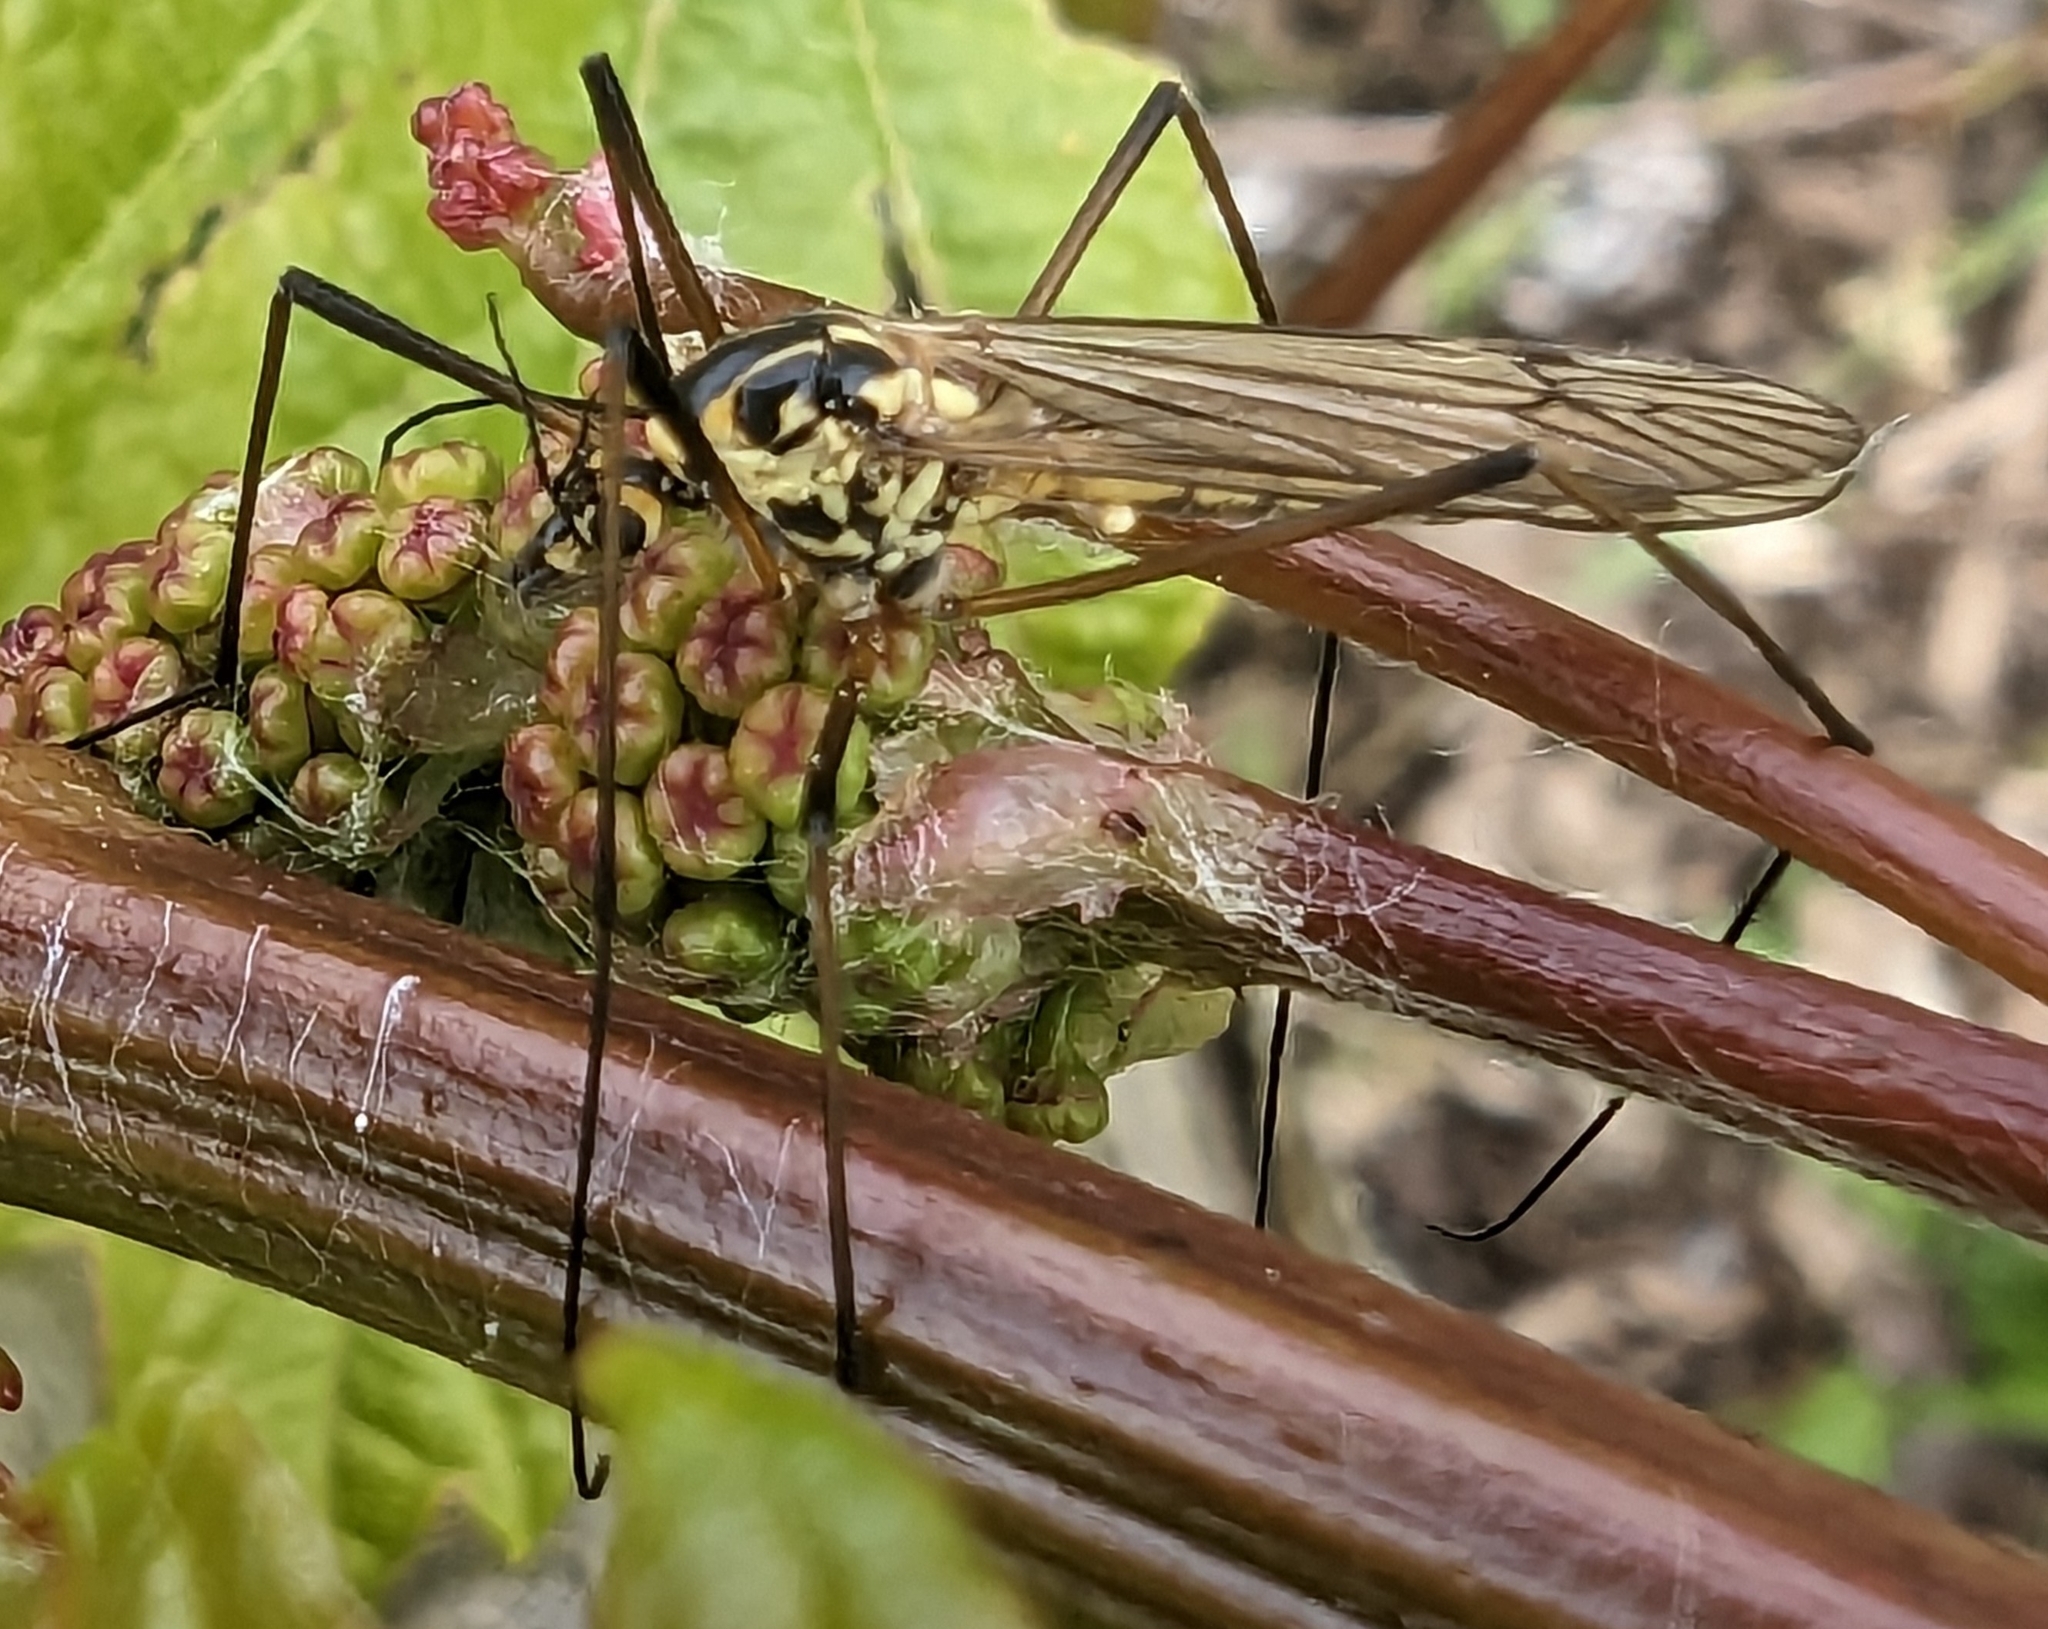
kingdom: Animalia
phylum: Arthropoda
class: Insecta
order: Diptera
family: Tipulidae
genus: Nephrotoma
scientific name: Nephrotoma appendiculata
